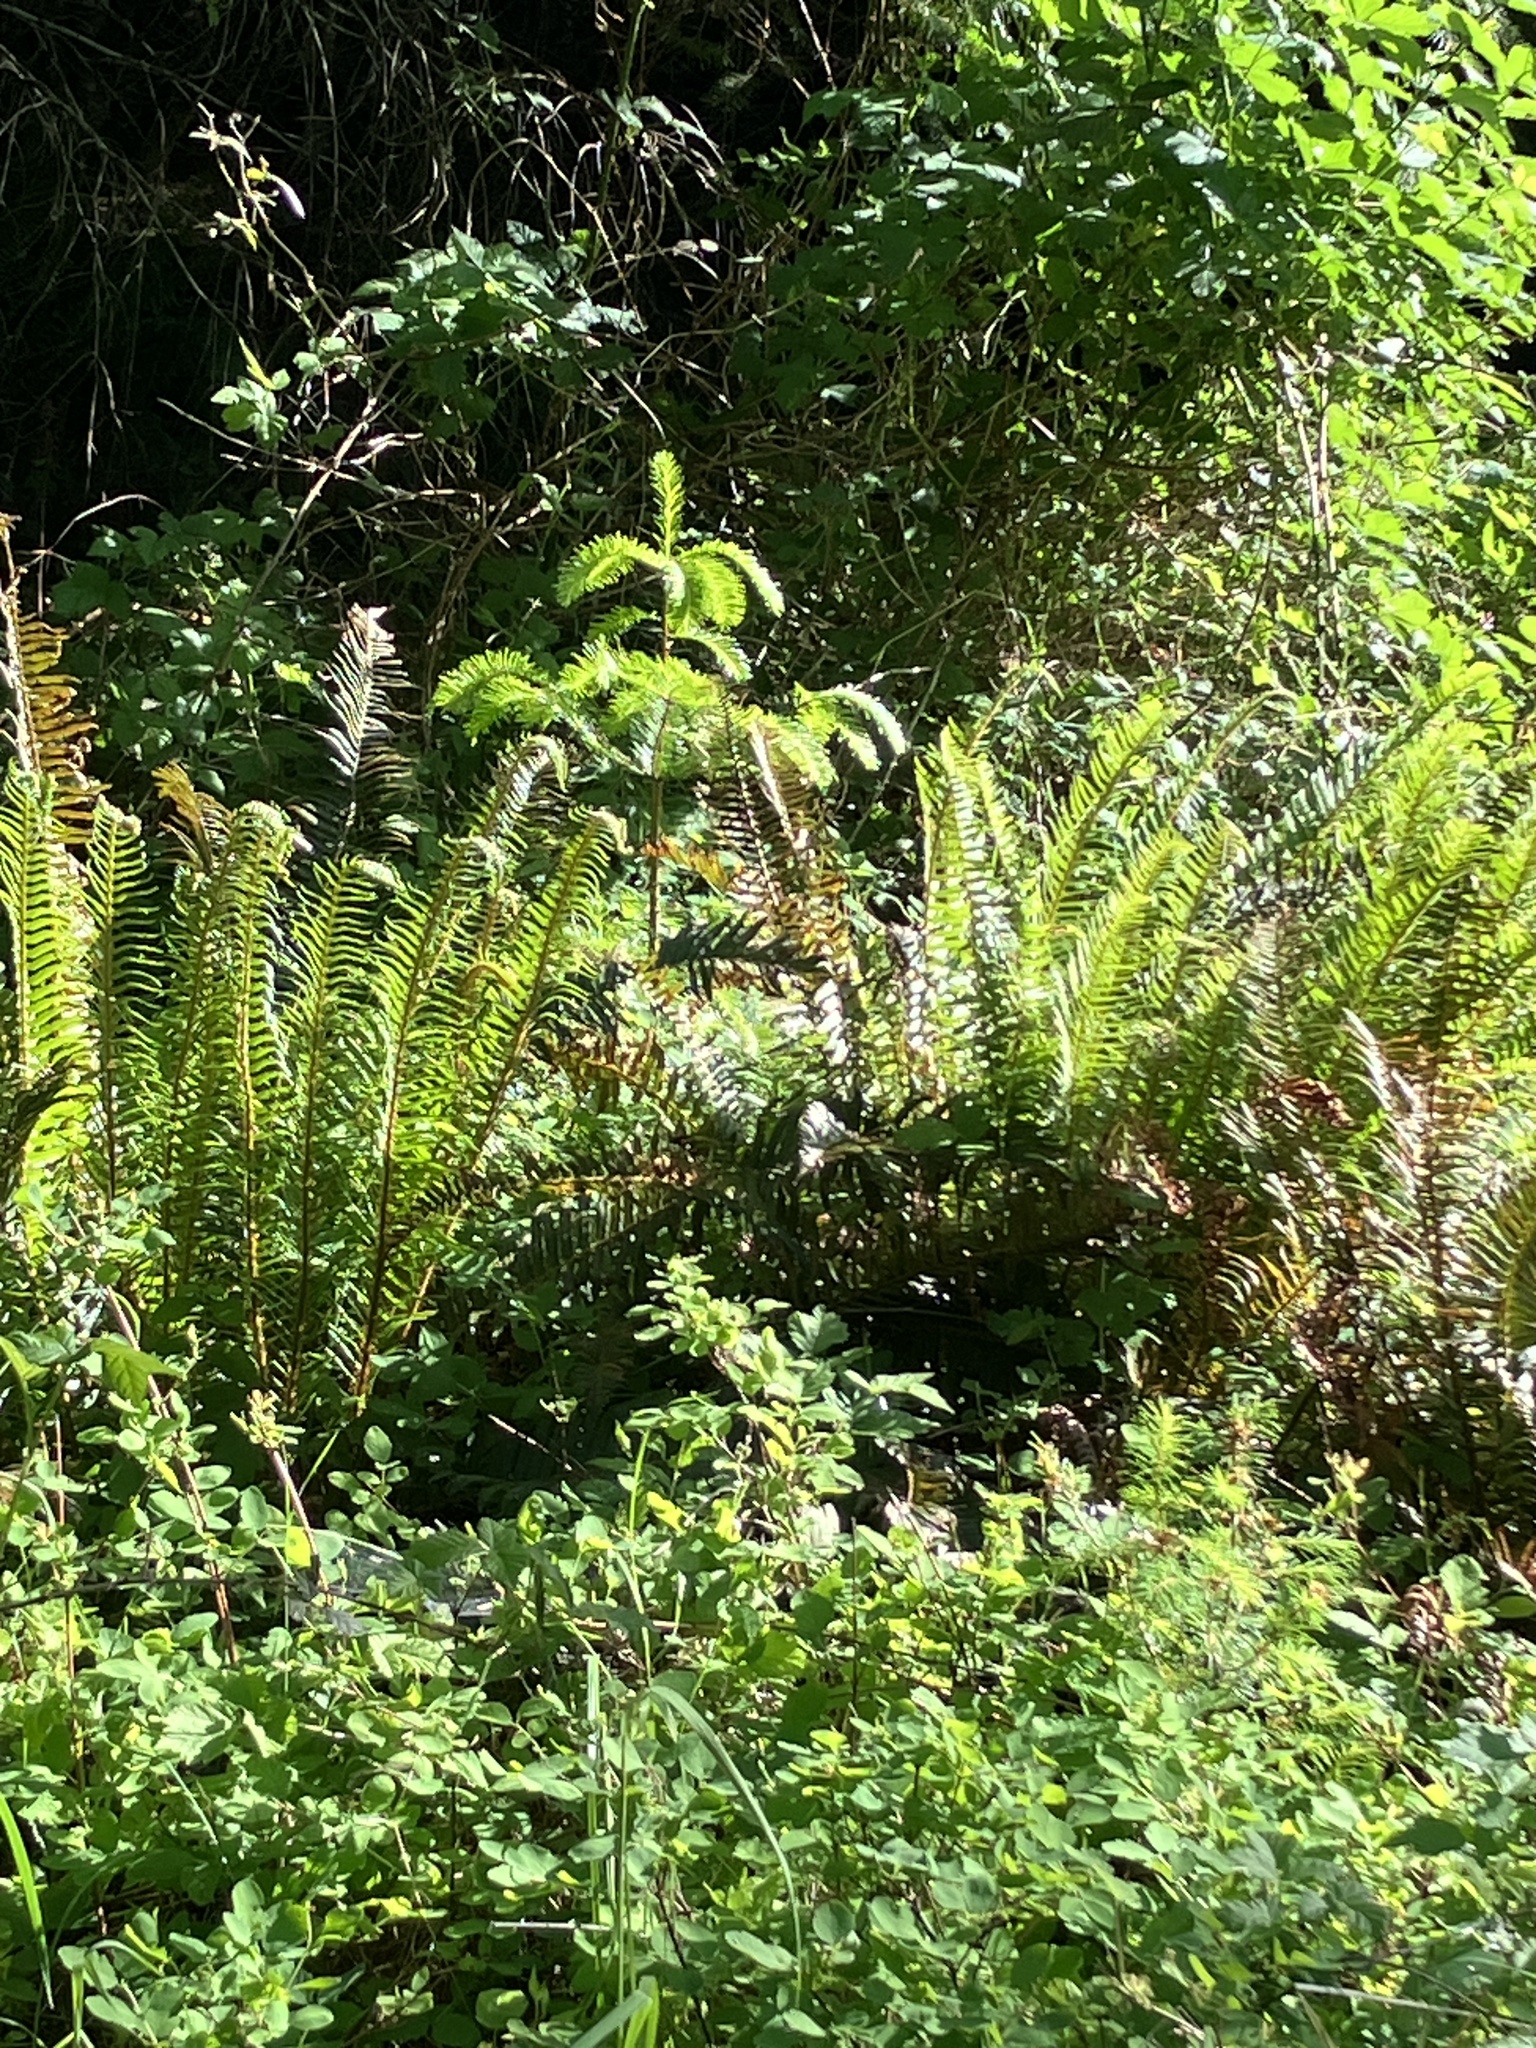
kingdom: Plantae
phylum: Tracheophyta
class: Polypodiopsida
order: Polypodiales
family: Dryopteridaceae
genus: Polystichum
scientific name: Polystichum munitum
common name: Western sword-fern
